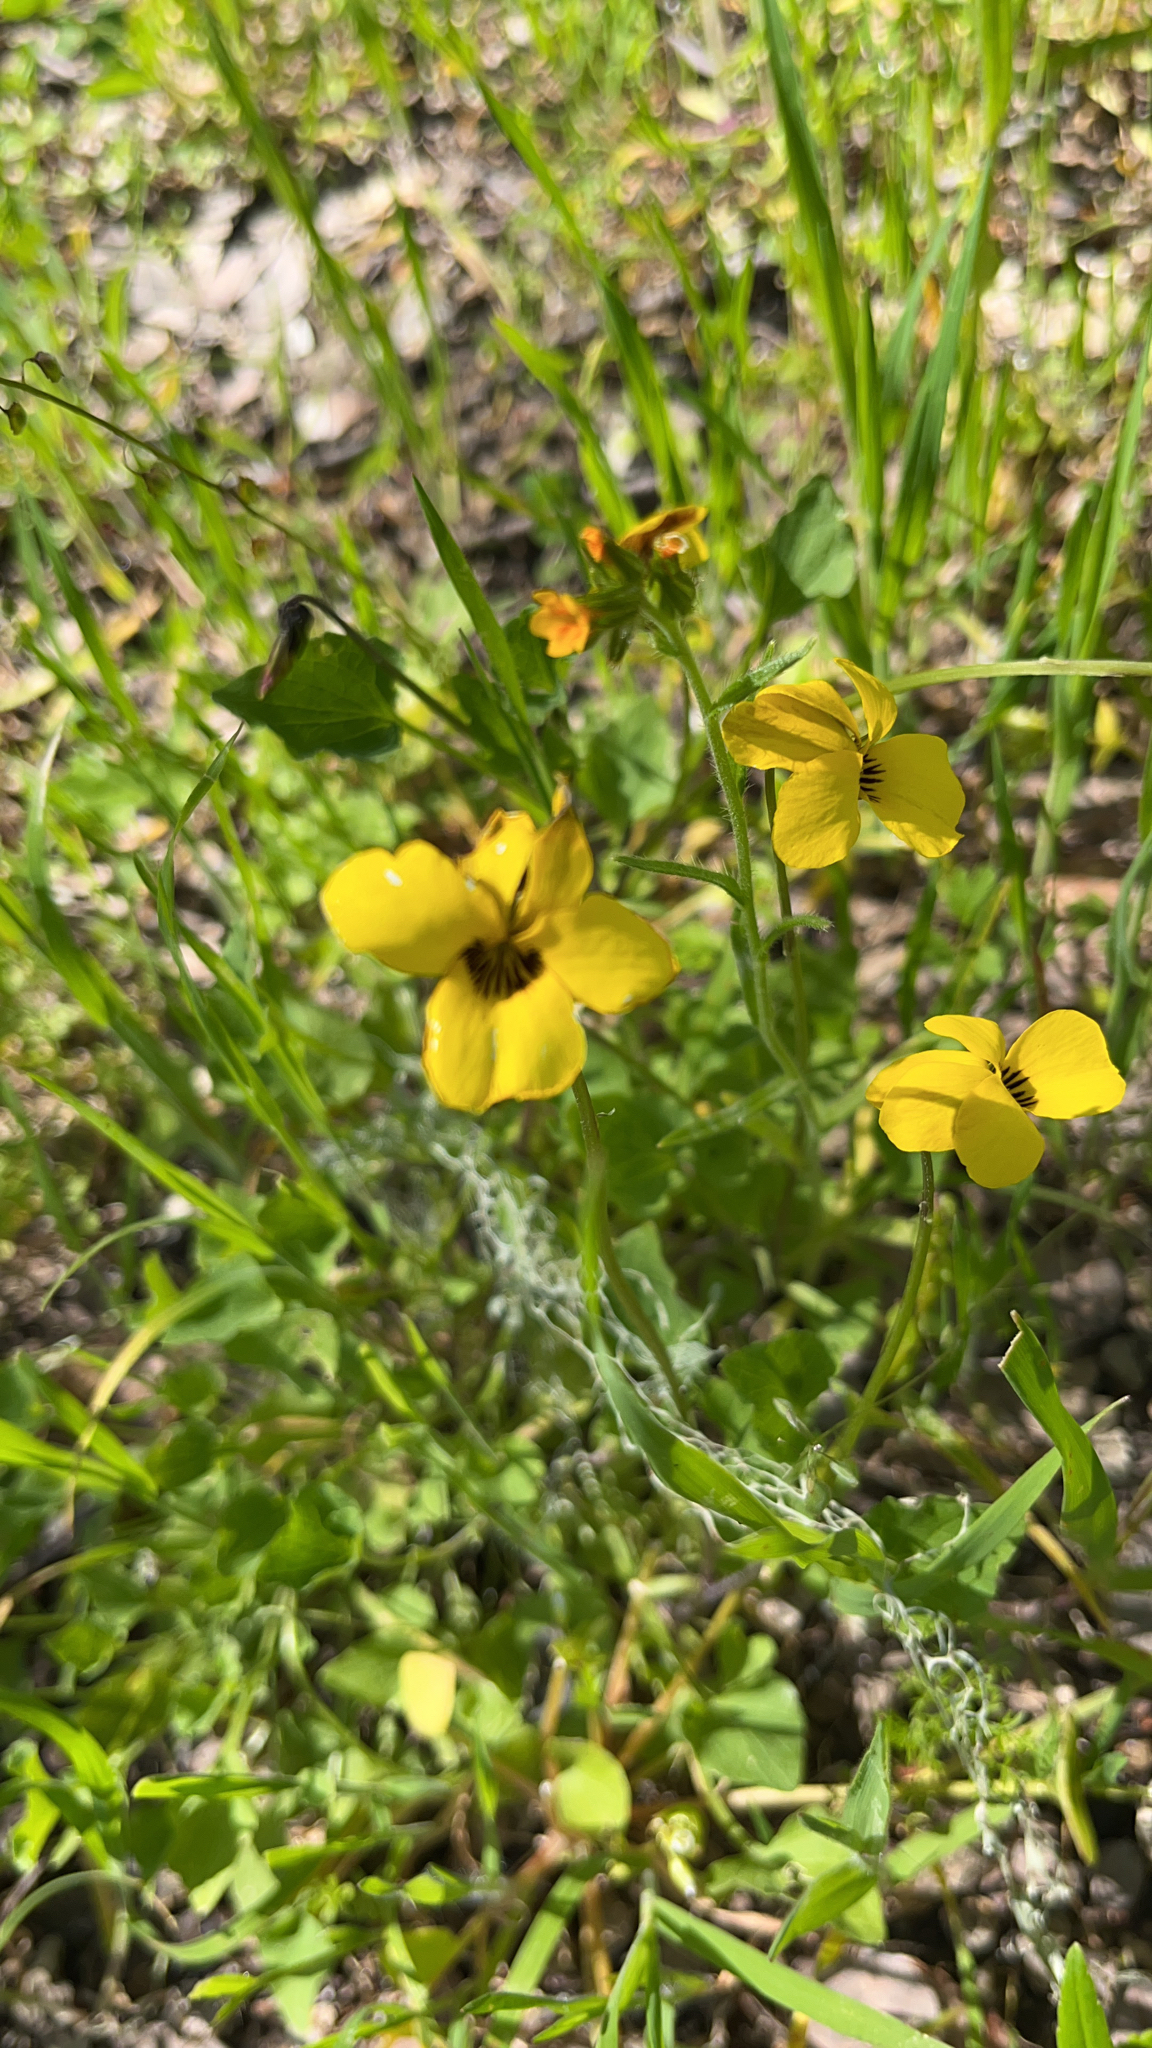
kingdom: Plantae
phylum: Tracheophyta
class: Magnoliopsida
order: Malpighiales
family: Violaceae
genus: Viola
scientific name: Viola pedunculata
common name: California golden violet
